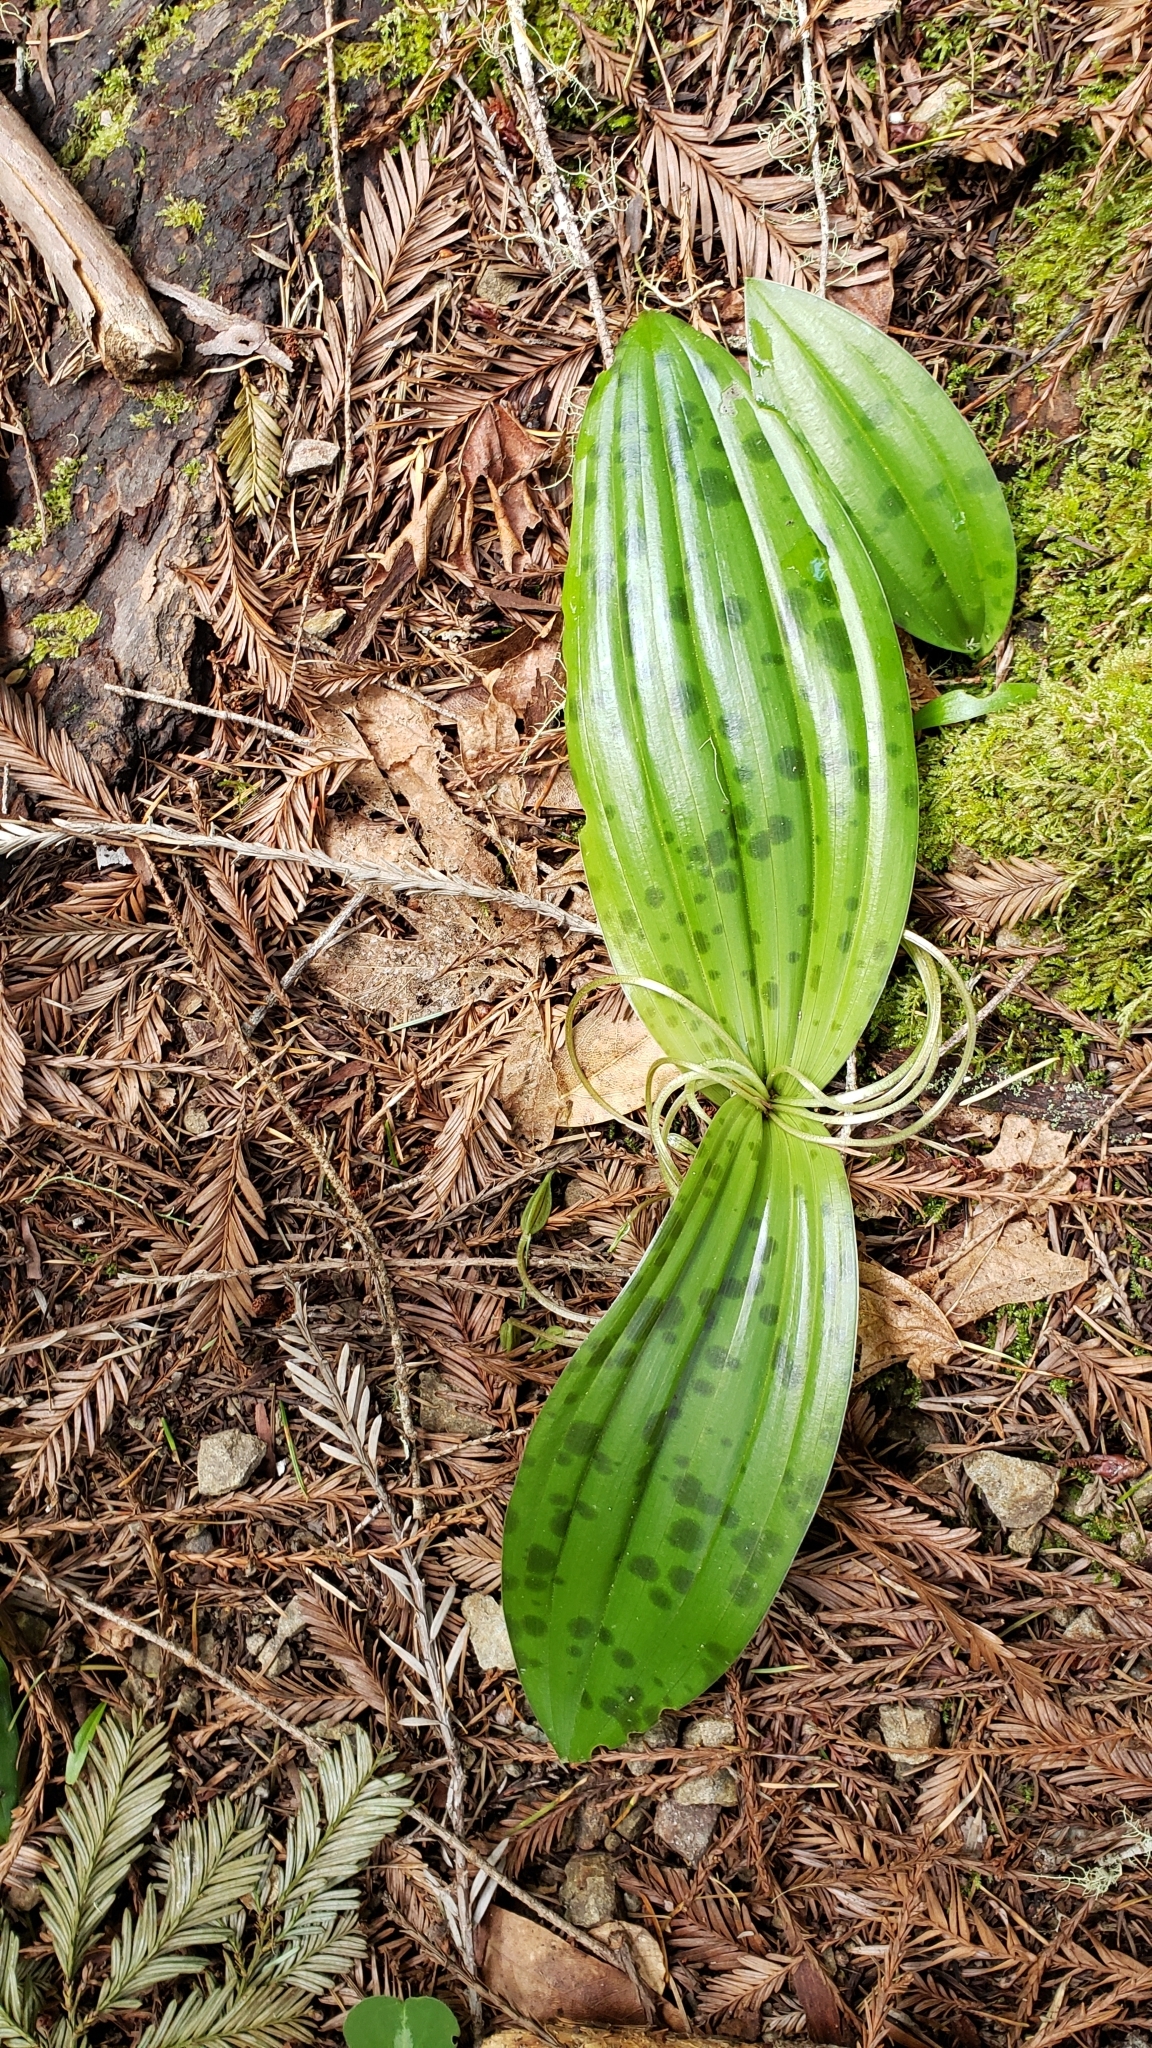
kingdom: Plantae
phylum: Tracheophyta
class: Liliopsida
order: Liliales
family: Liliaceae
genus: Scoliopus
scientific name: Scoliopus bigelovii
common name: Foetid adder's-tongue
